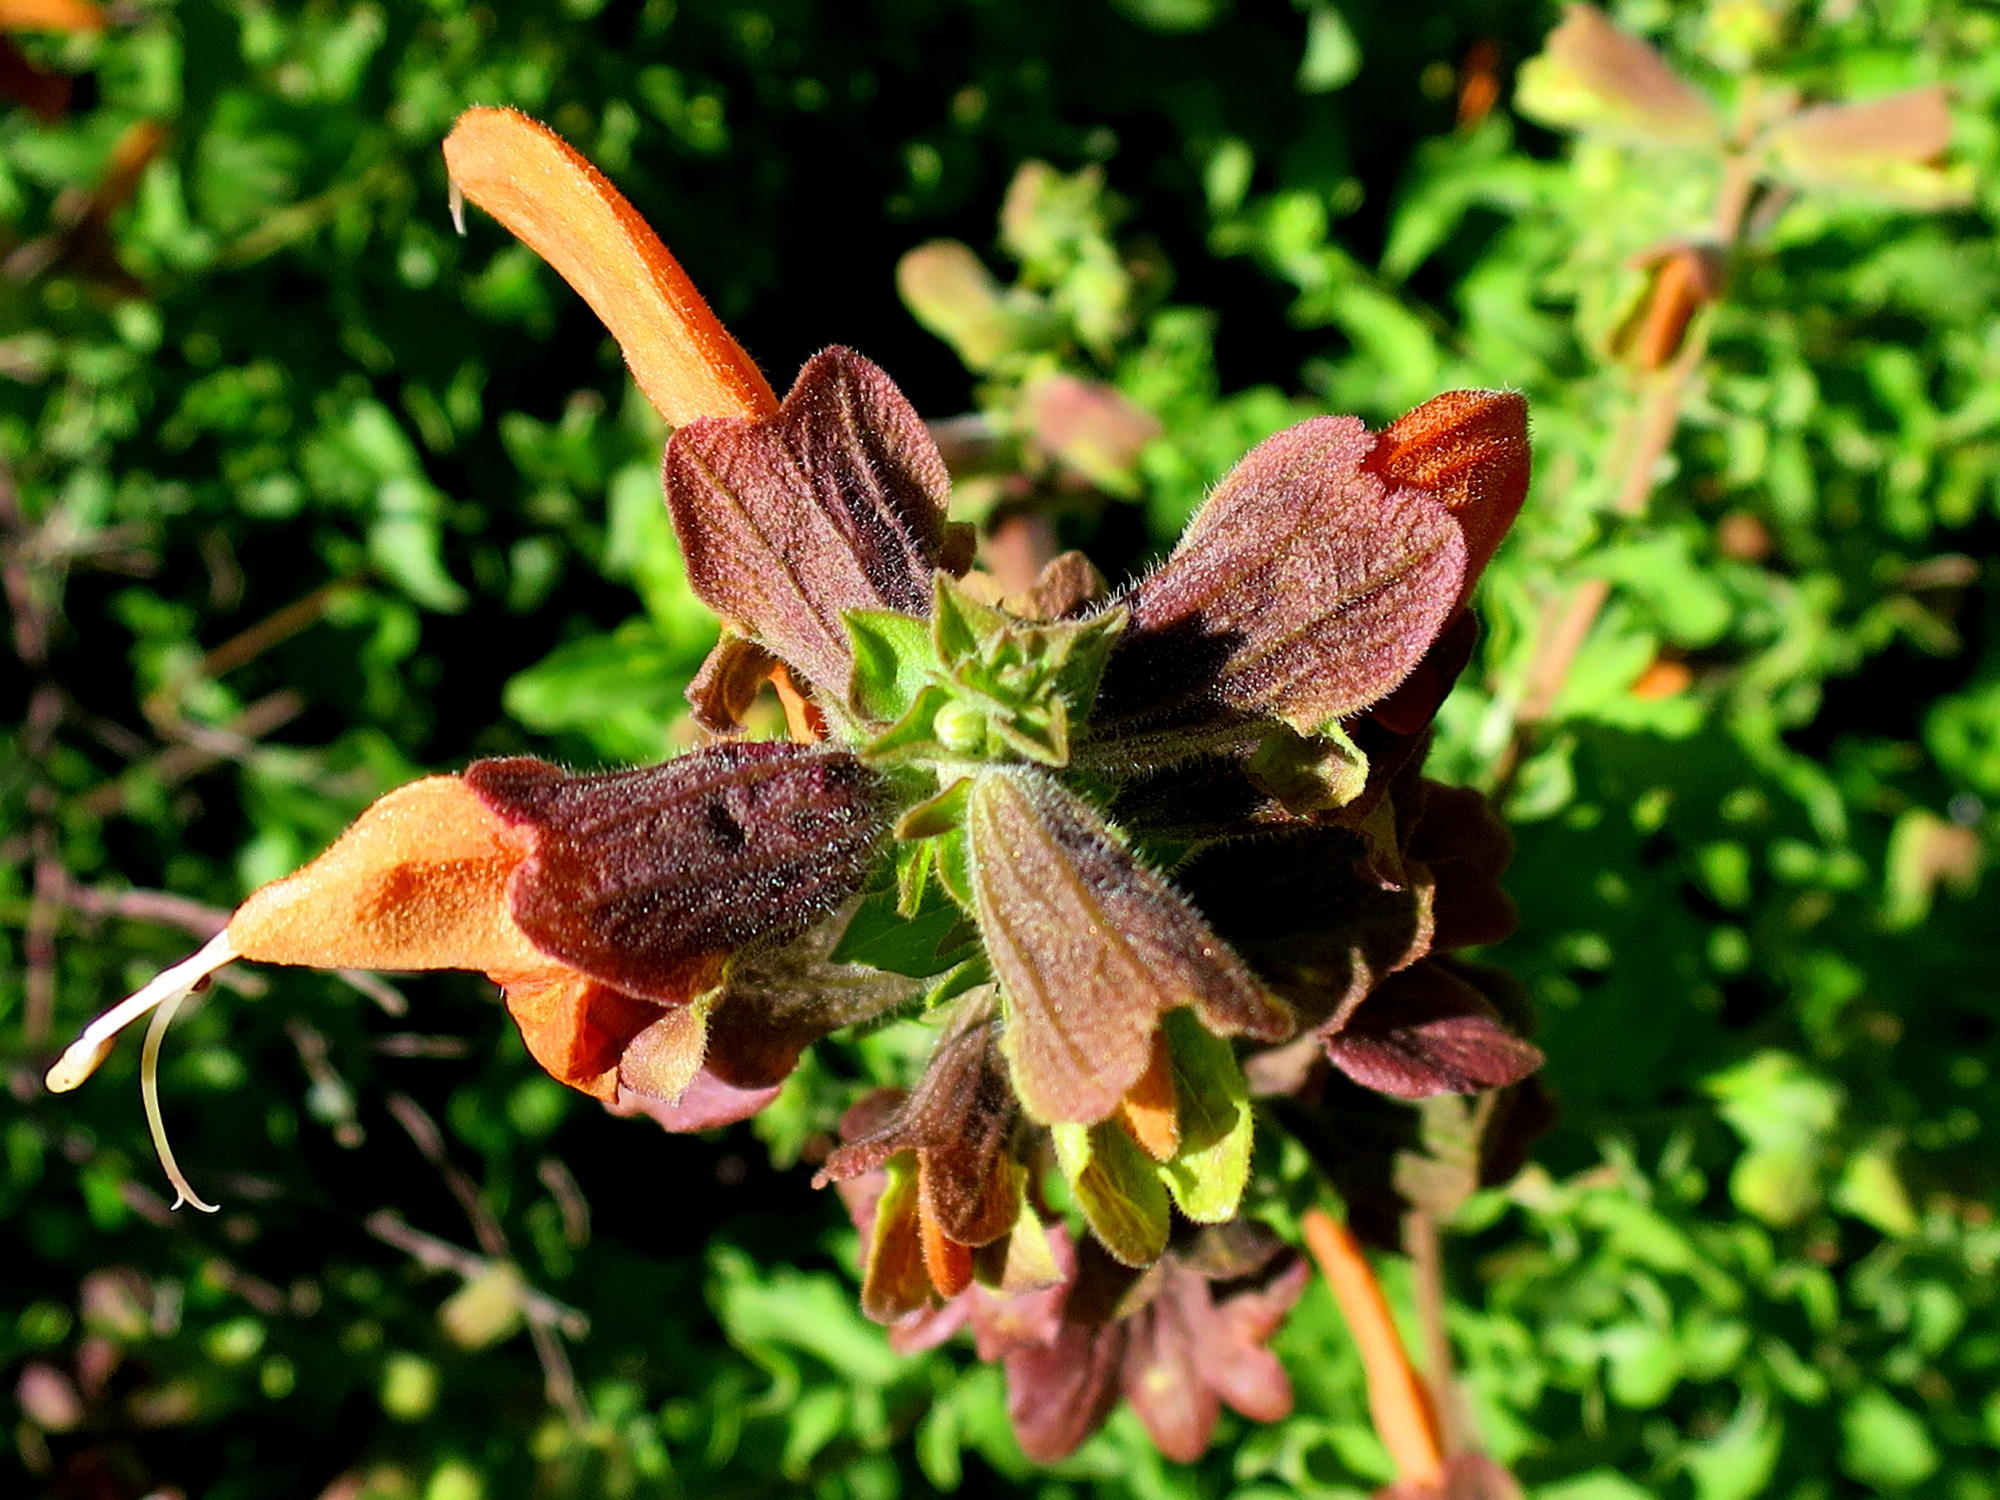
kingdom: Plantae
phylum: Tracheophyta
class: Magnoliopsida
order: Lamiales
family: Lamiaceae
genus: Salvia
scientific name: Salvia aurea
